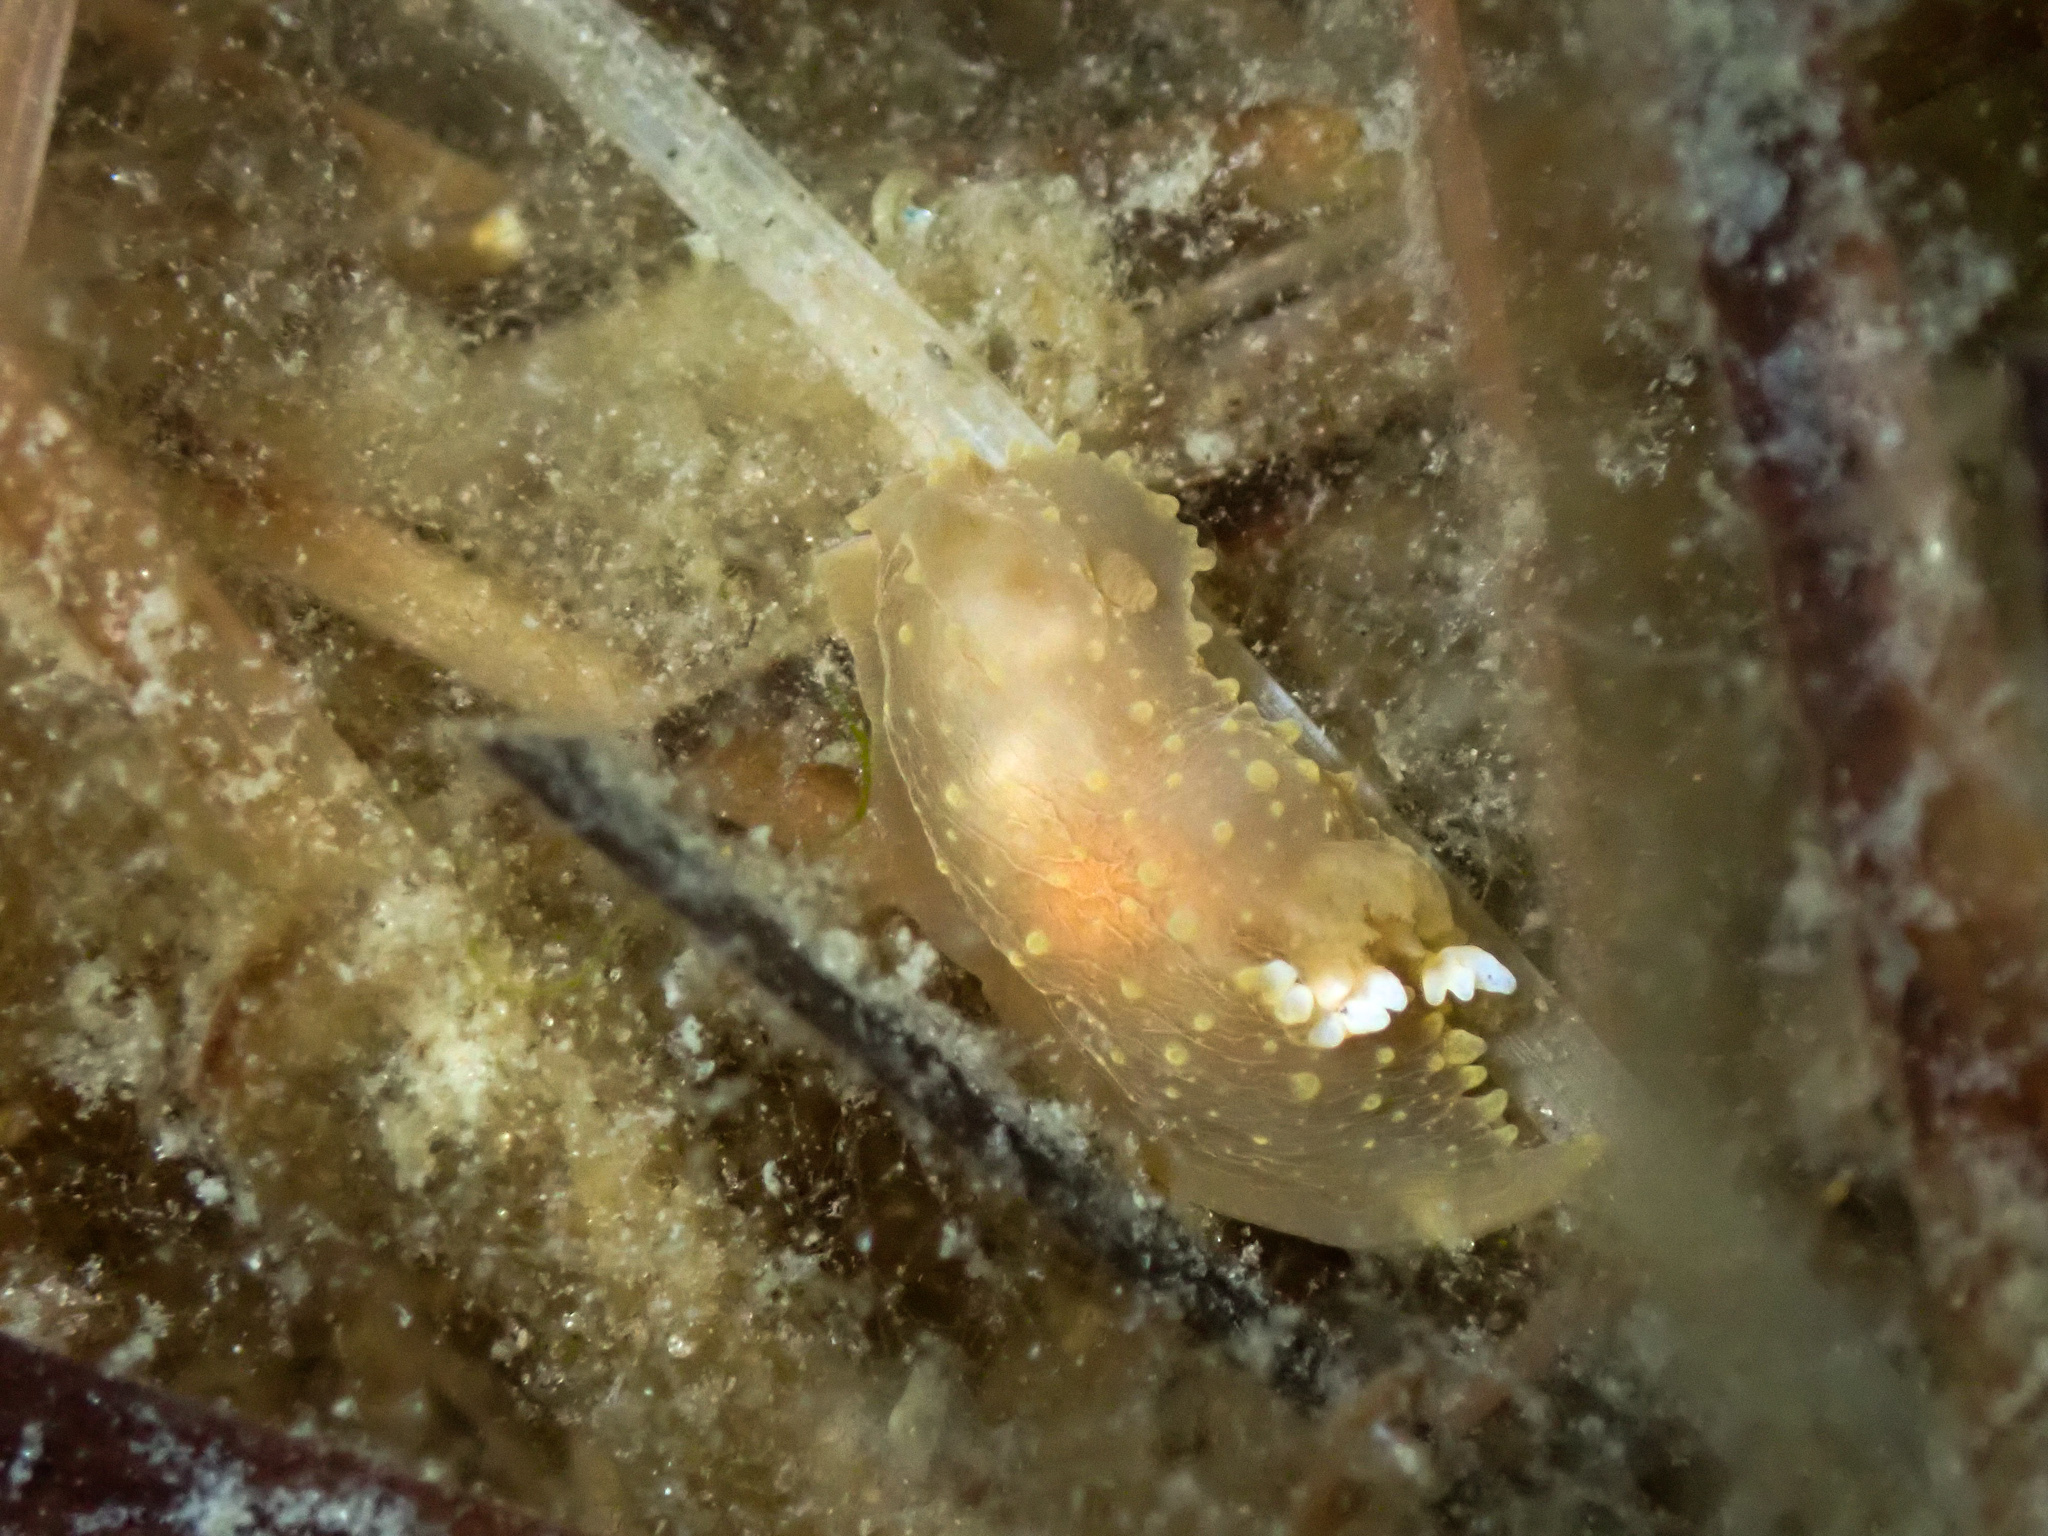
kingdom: Animalia
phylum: Mollusca
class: Gastropoda
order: Nudibranchia
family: Polyceridae
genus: Palio
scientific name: Palio dubia
